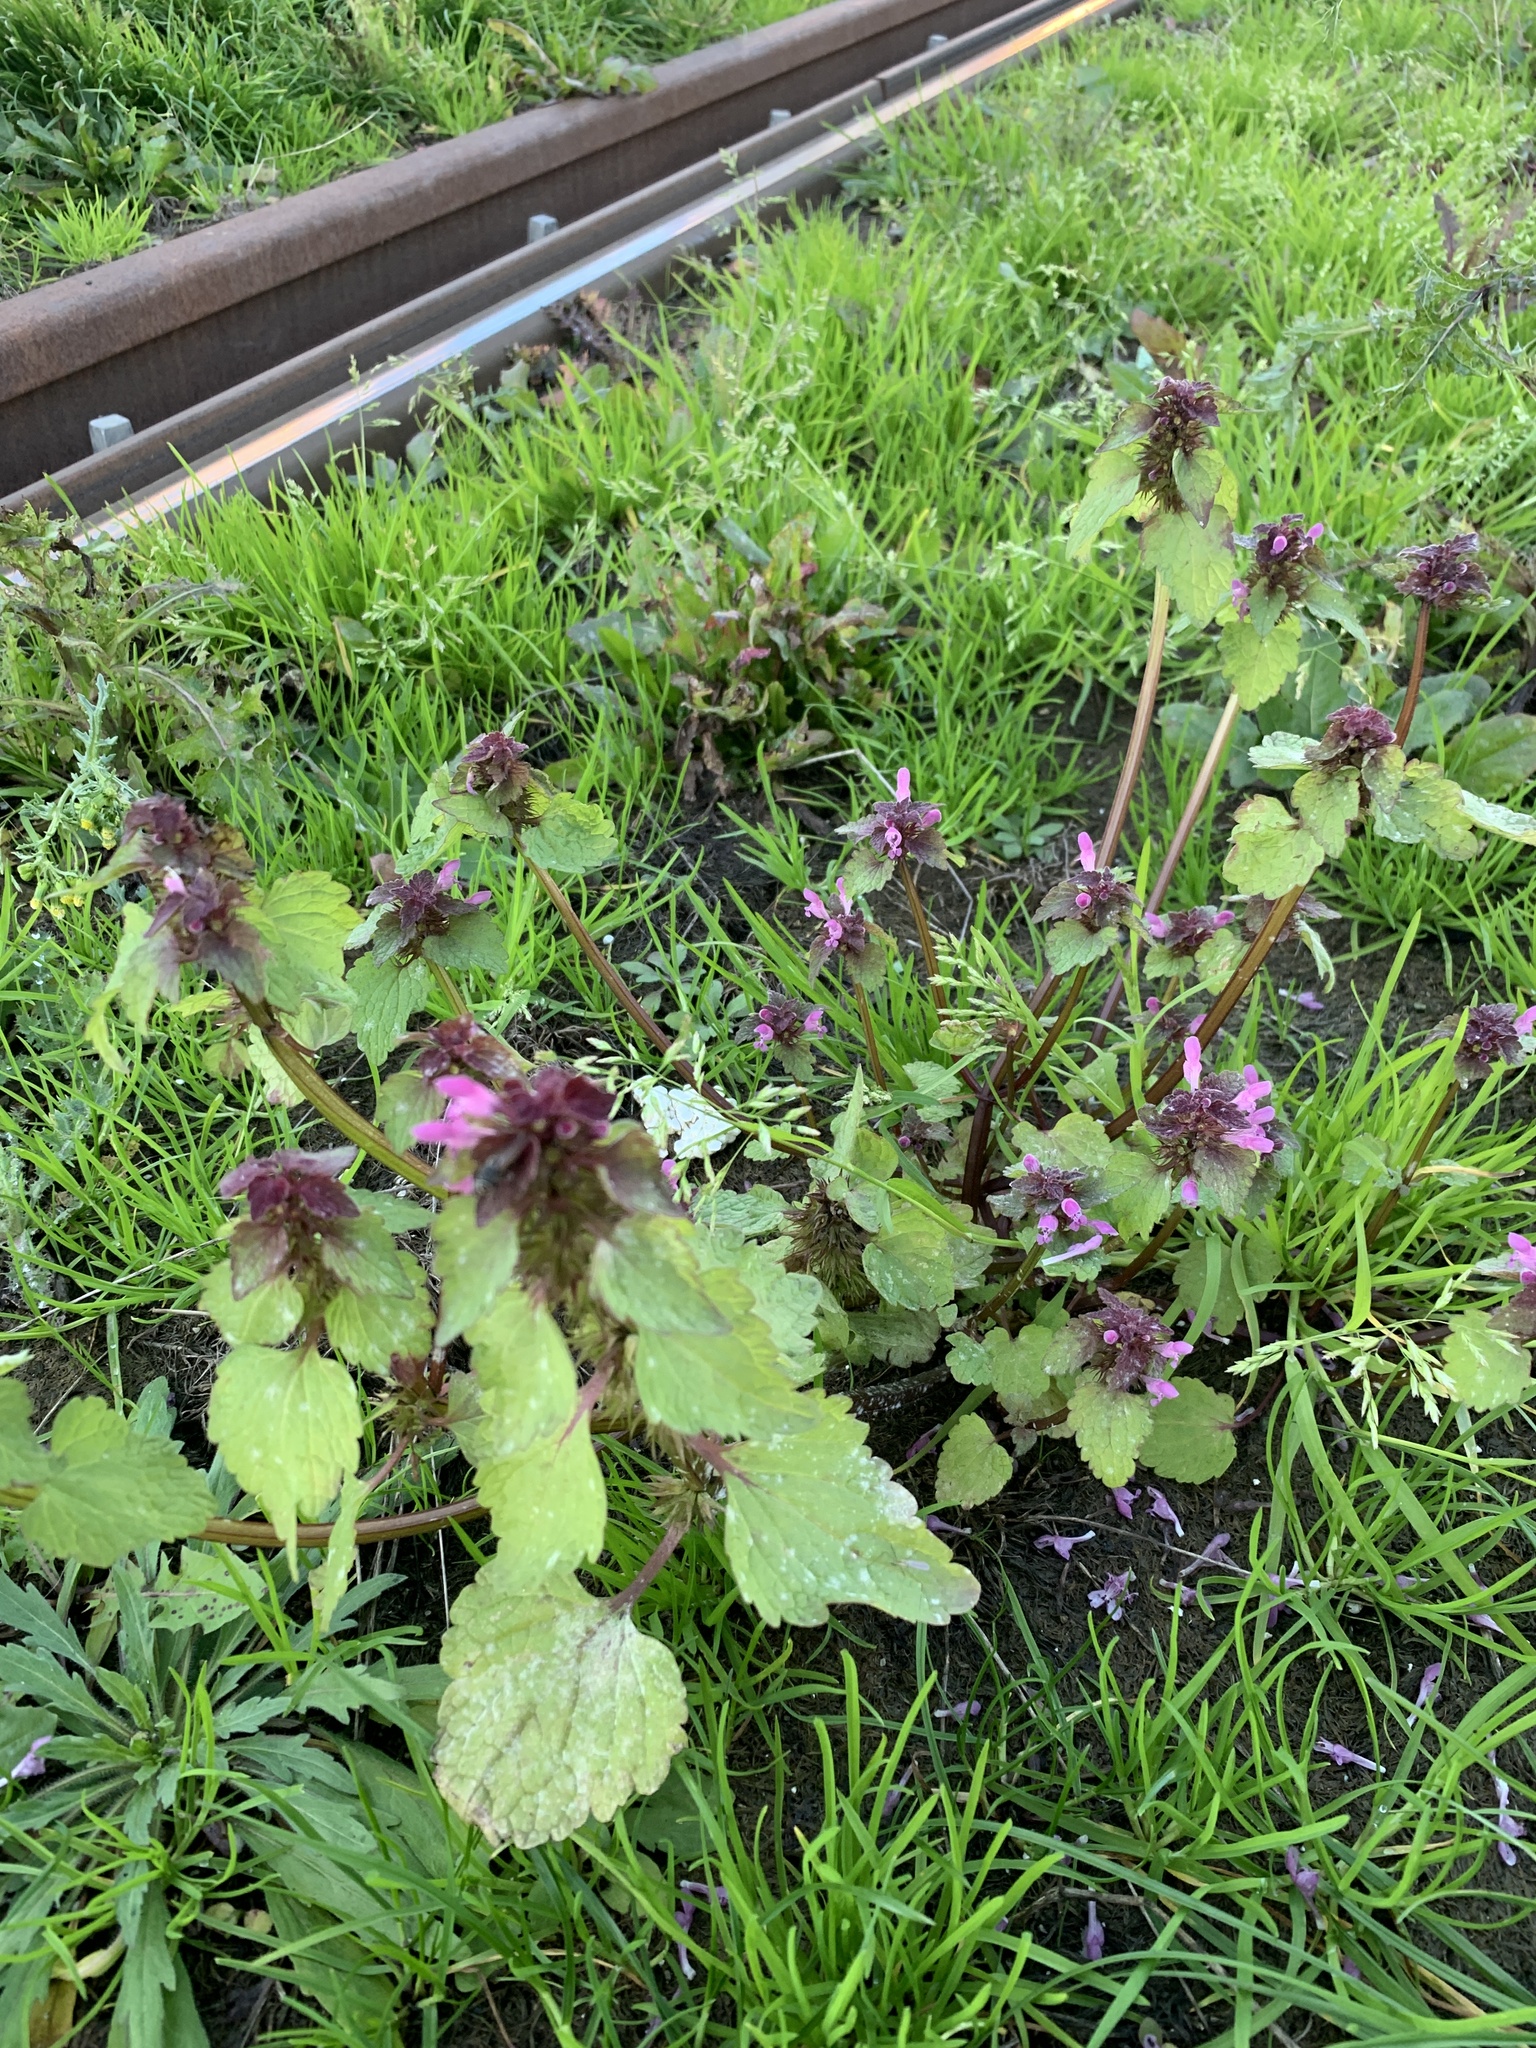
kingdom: Plantae
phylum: Tracheophyta
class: Magnoliopsida
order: Lamiales
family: Lamiaceae
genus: Lamium
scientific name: Lamium purpureum
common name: Red dead-nettle
